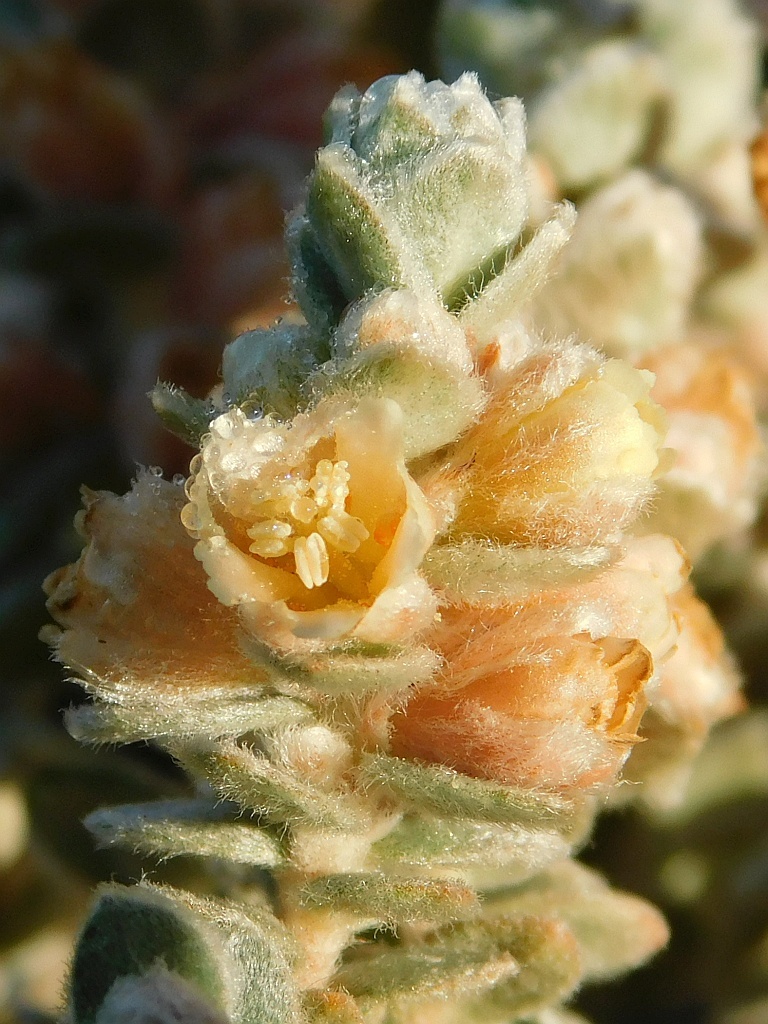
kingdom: Plantae
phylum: Tracheophyta
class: Magnoliopsida
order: Malpighiales
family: Peraceae
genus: Clutia
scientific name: Clutia tomentosa
